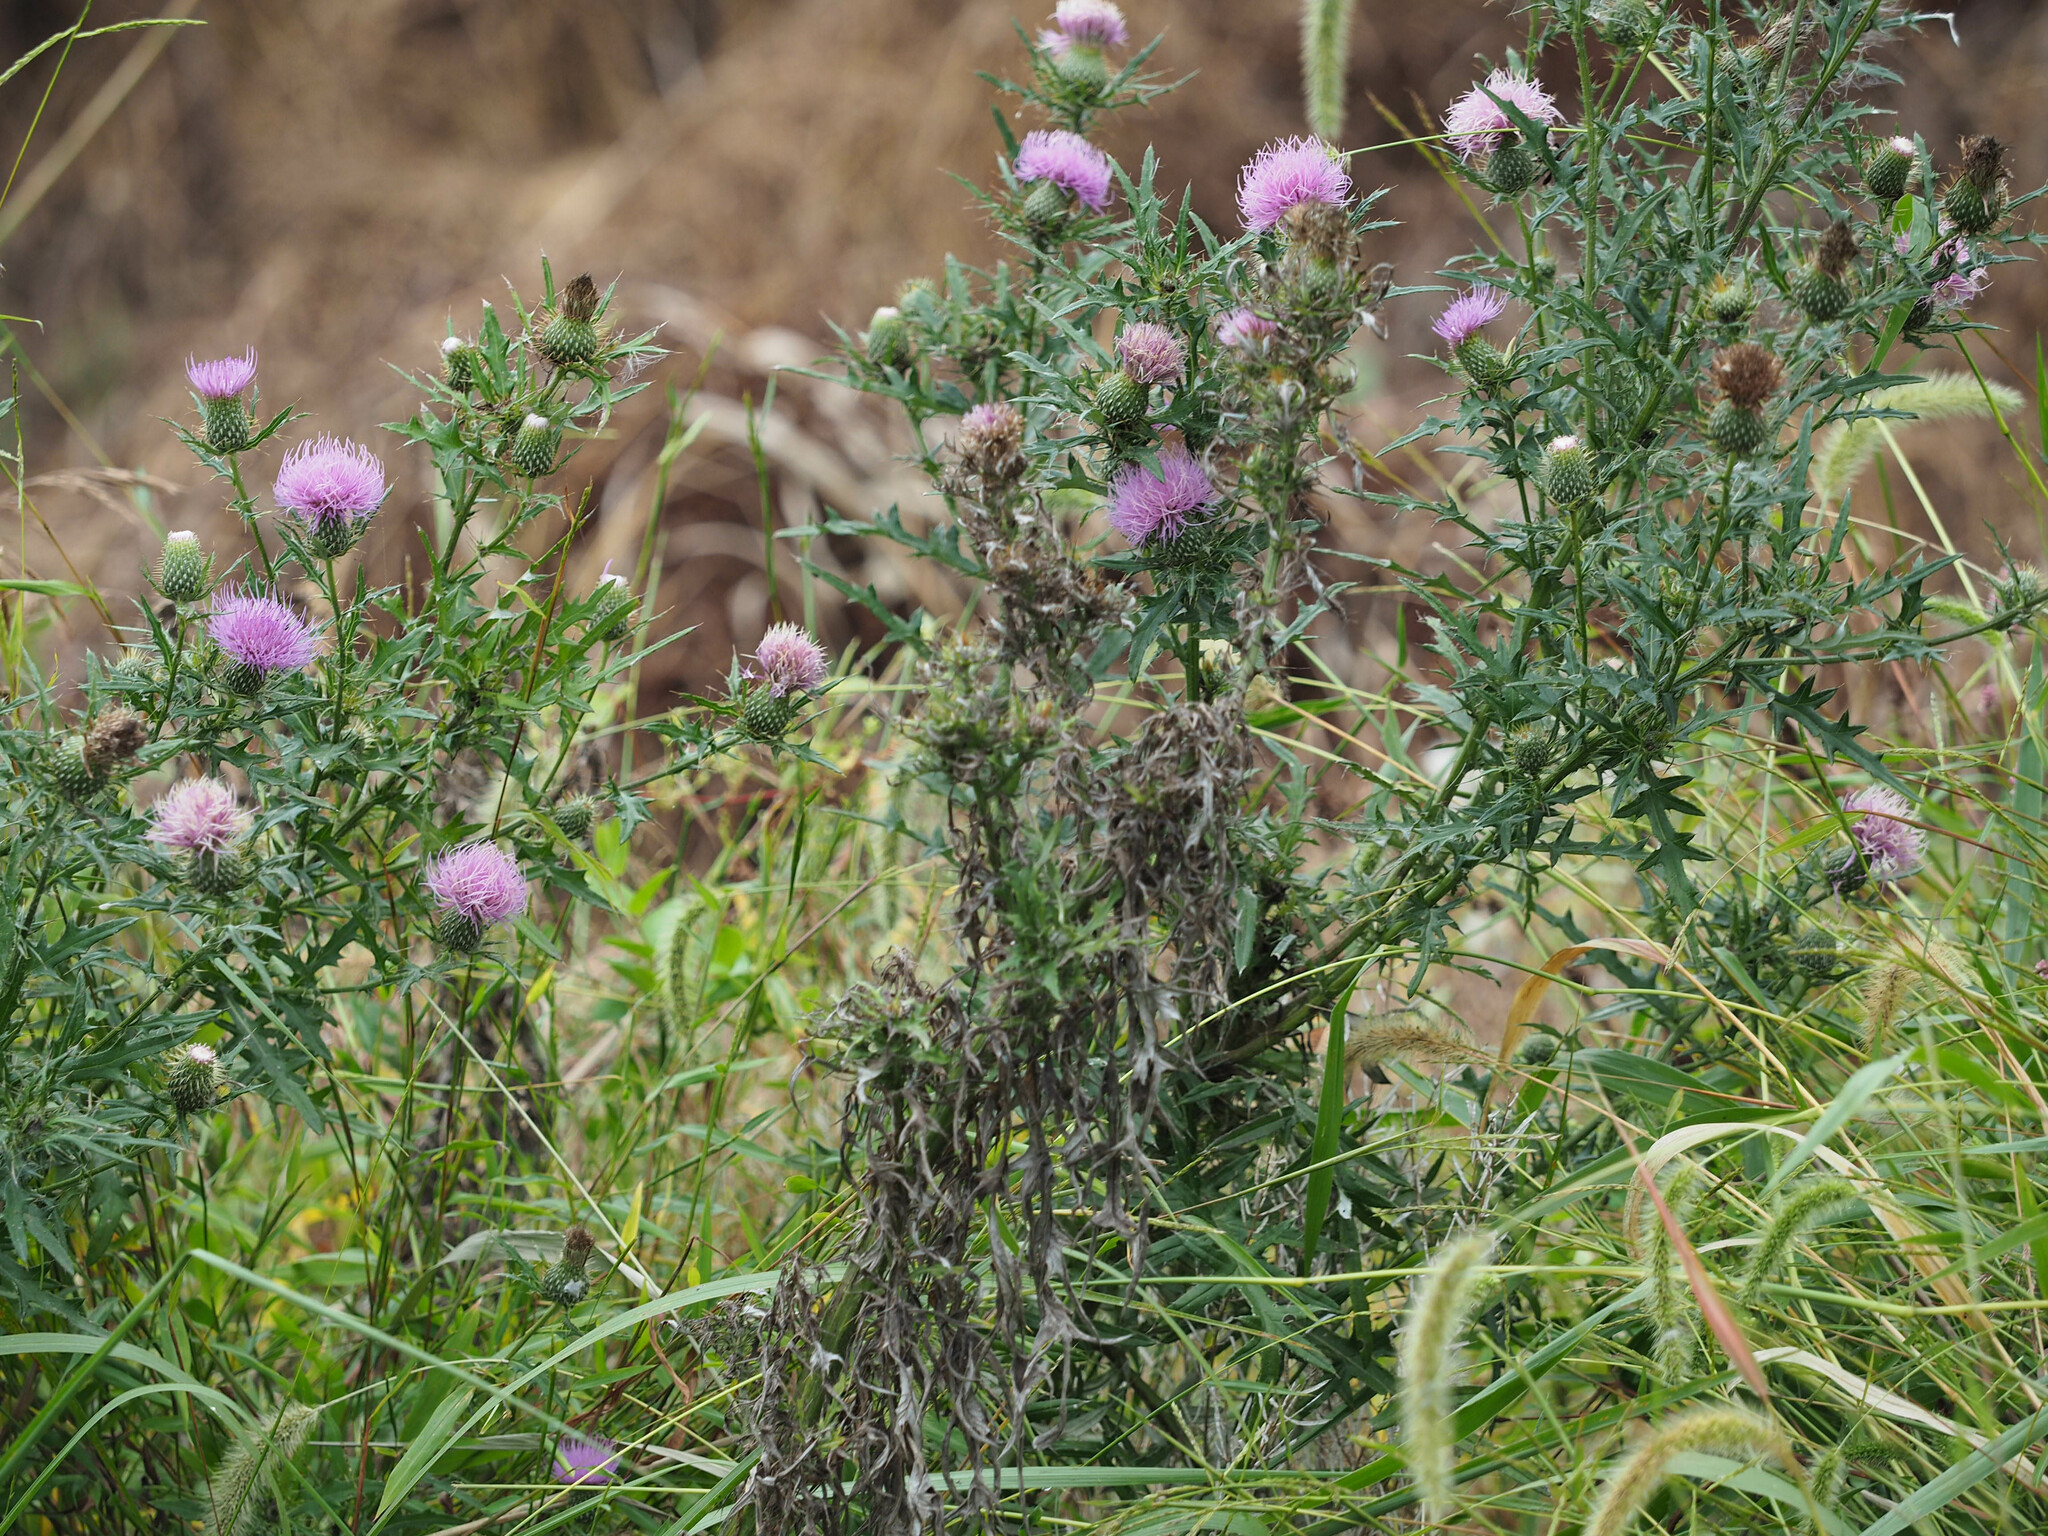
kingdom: Plantae
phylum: Tracheophyta
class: Magnoliopsida
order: Asterales
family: Asteraceae
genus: Cirsium
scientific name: Cirsium discolor
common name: Field thistle
